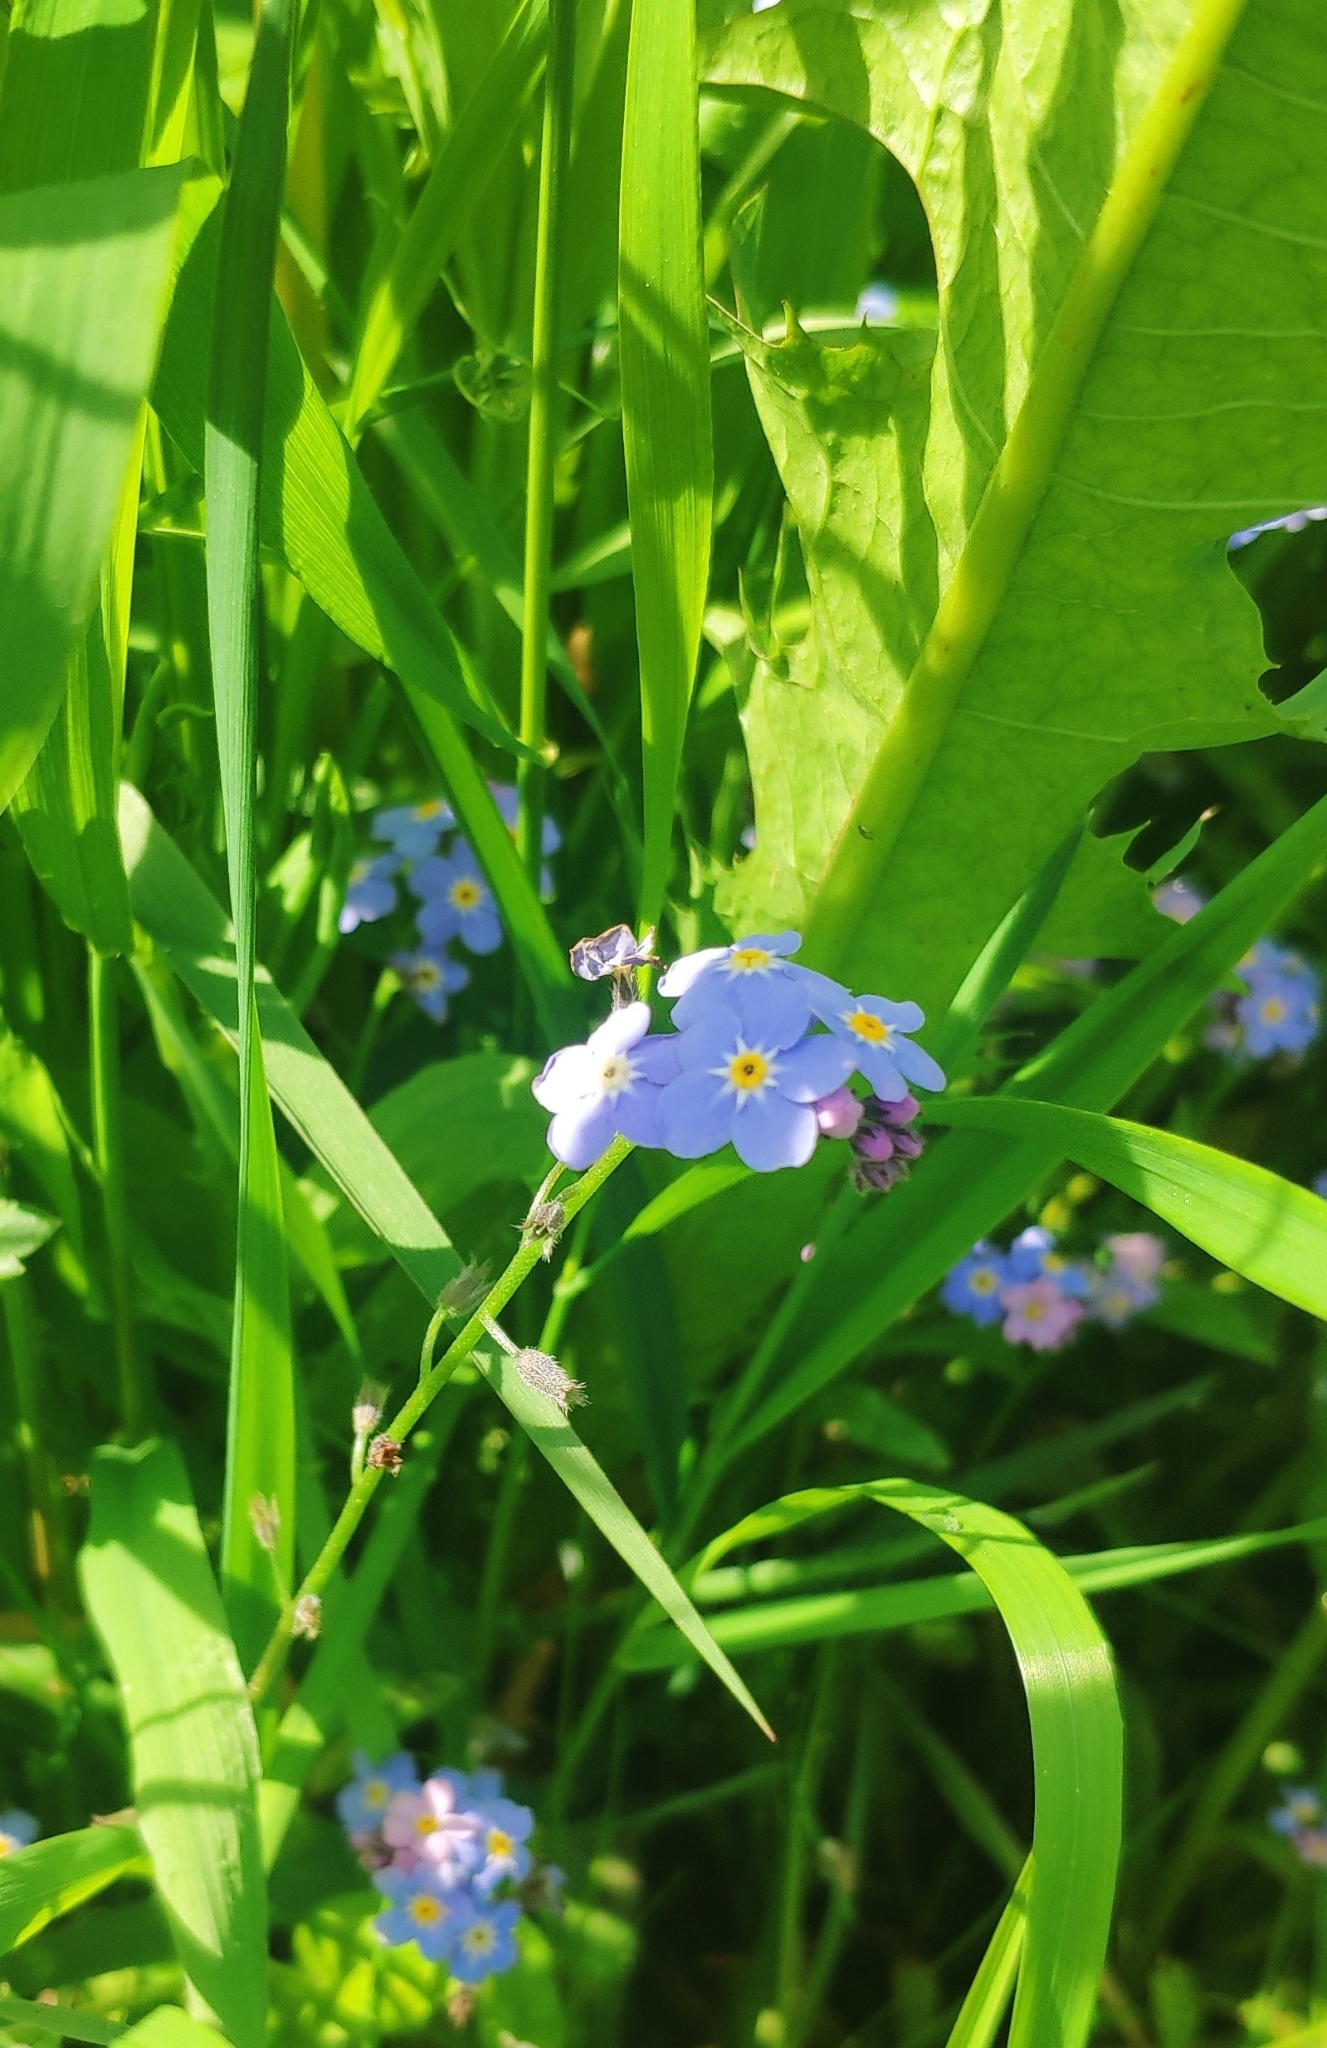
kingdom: Plantae
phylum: Tracheophyta
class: Magnoliopsida
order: Boraginales
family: Boraginaceae
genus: Myosotis
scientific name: Myosotis sylvatica
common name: Wood forget-me-not
